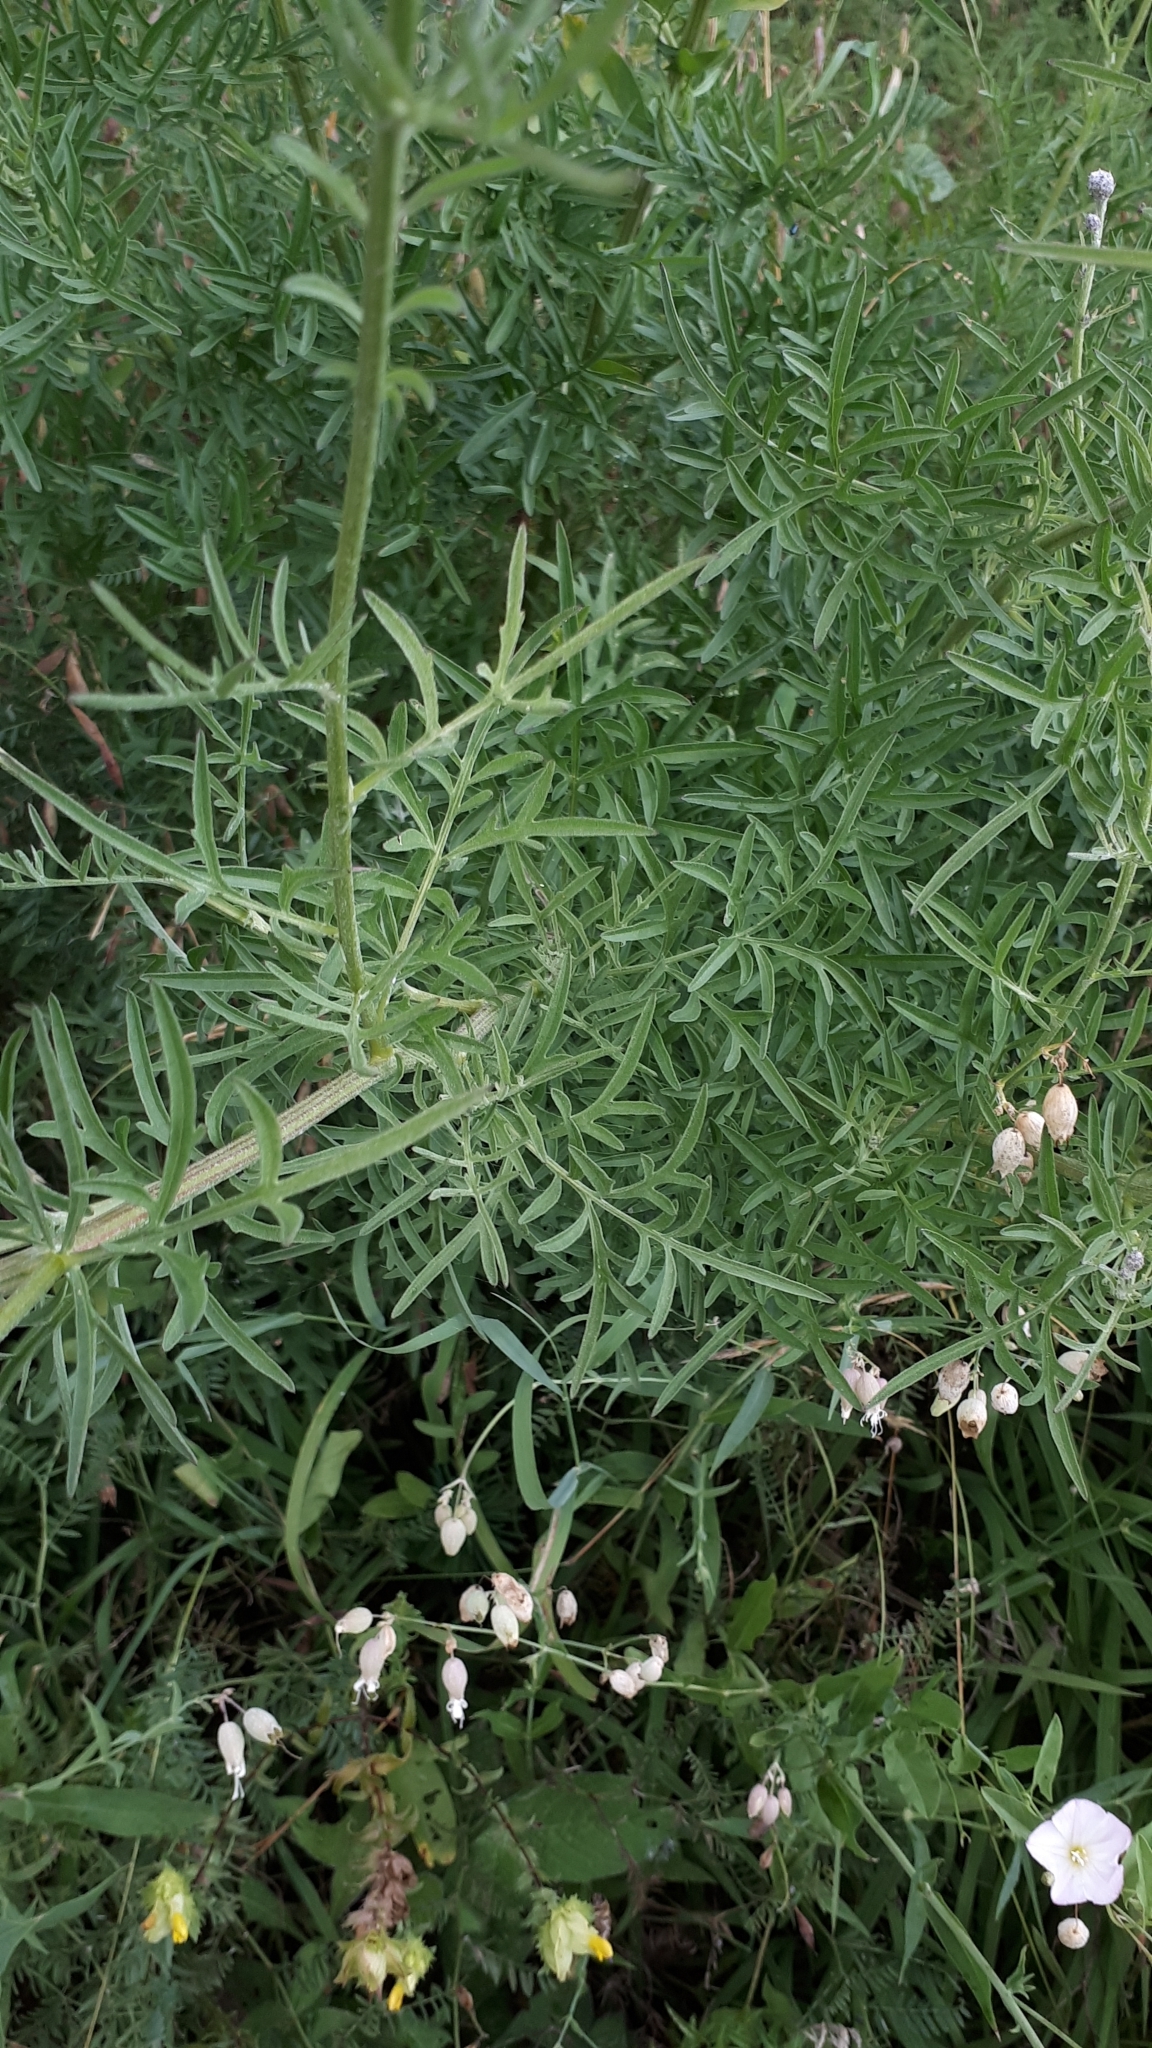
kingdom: Plantae
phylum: Tracheophyta
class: Magnoliopsida
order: Asterales
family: Asteraceae
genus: Centaurea
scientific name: Centaurea scabiosa
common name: Greater knapweed
